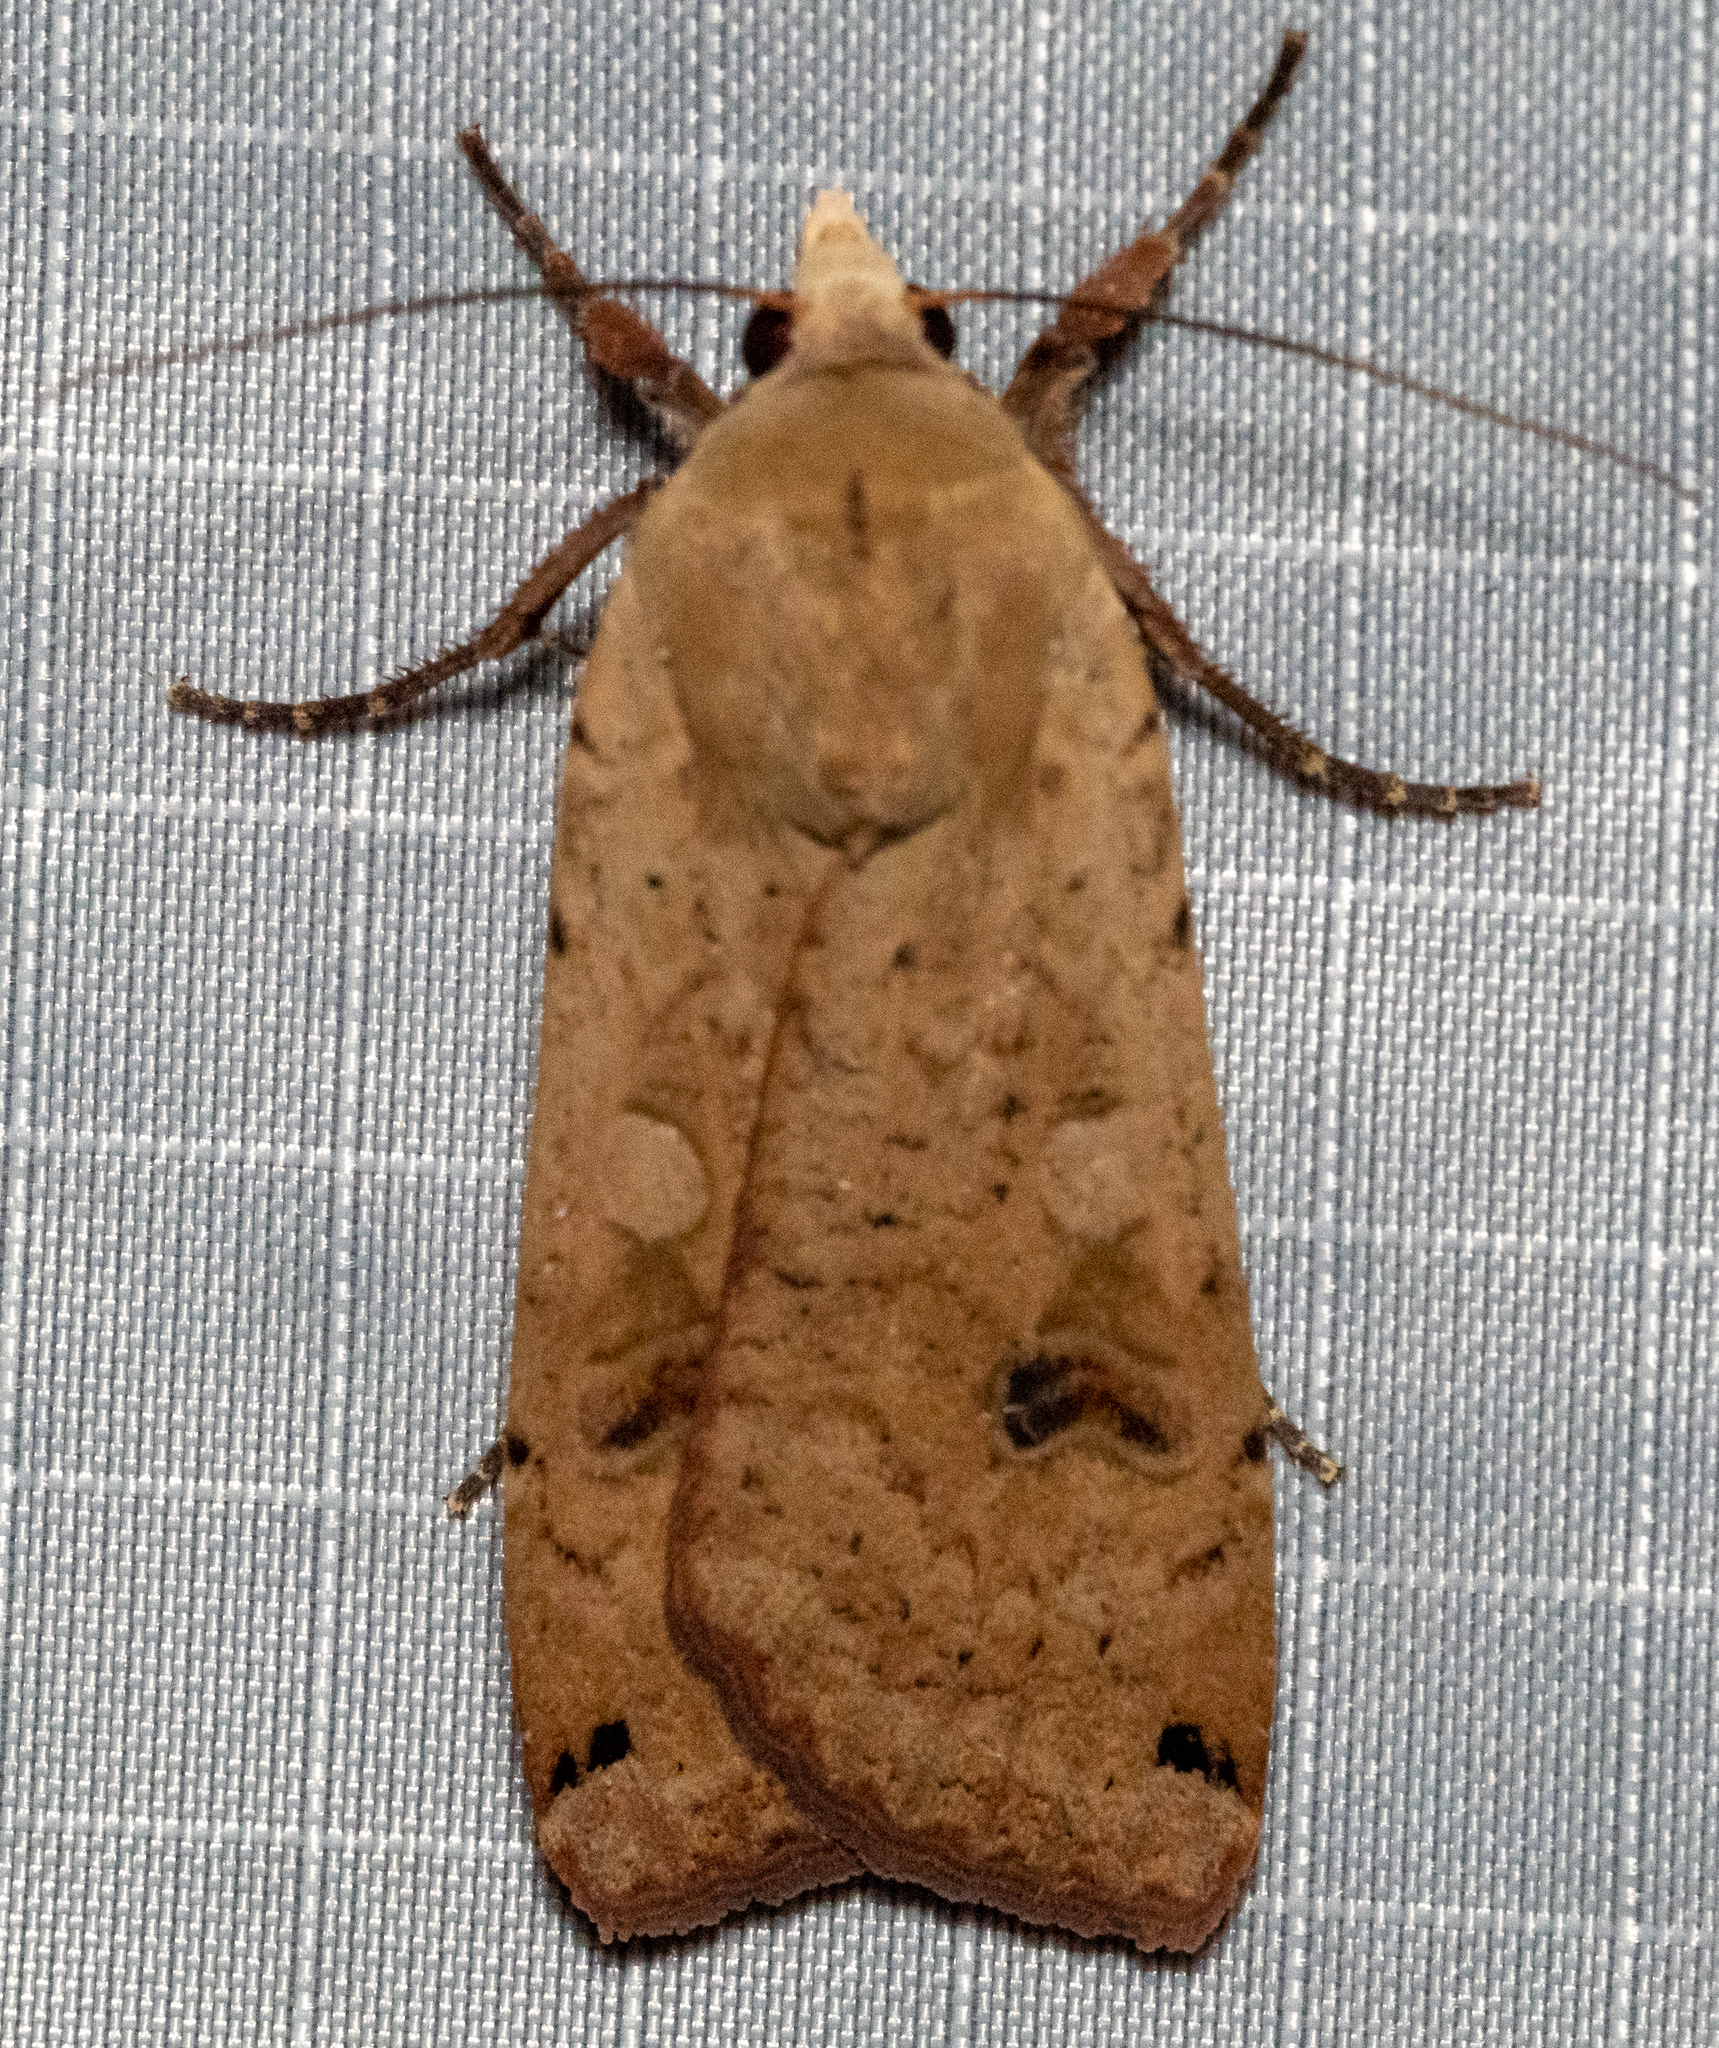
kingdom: Animalia
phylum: Arthropoda
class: Insecta
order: Lepidoptera
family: Noctuidae
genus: Noctua
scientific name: Noctua pronuba
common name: Large yellow underwing
